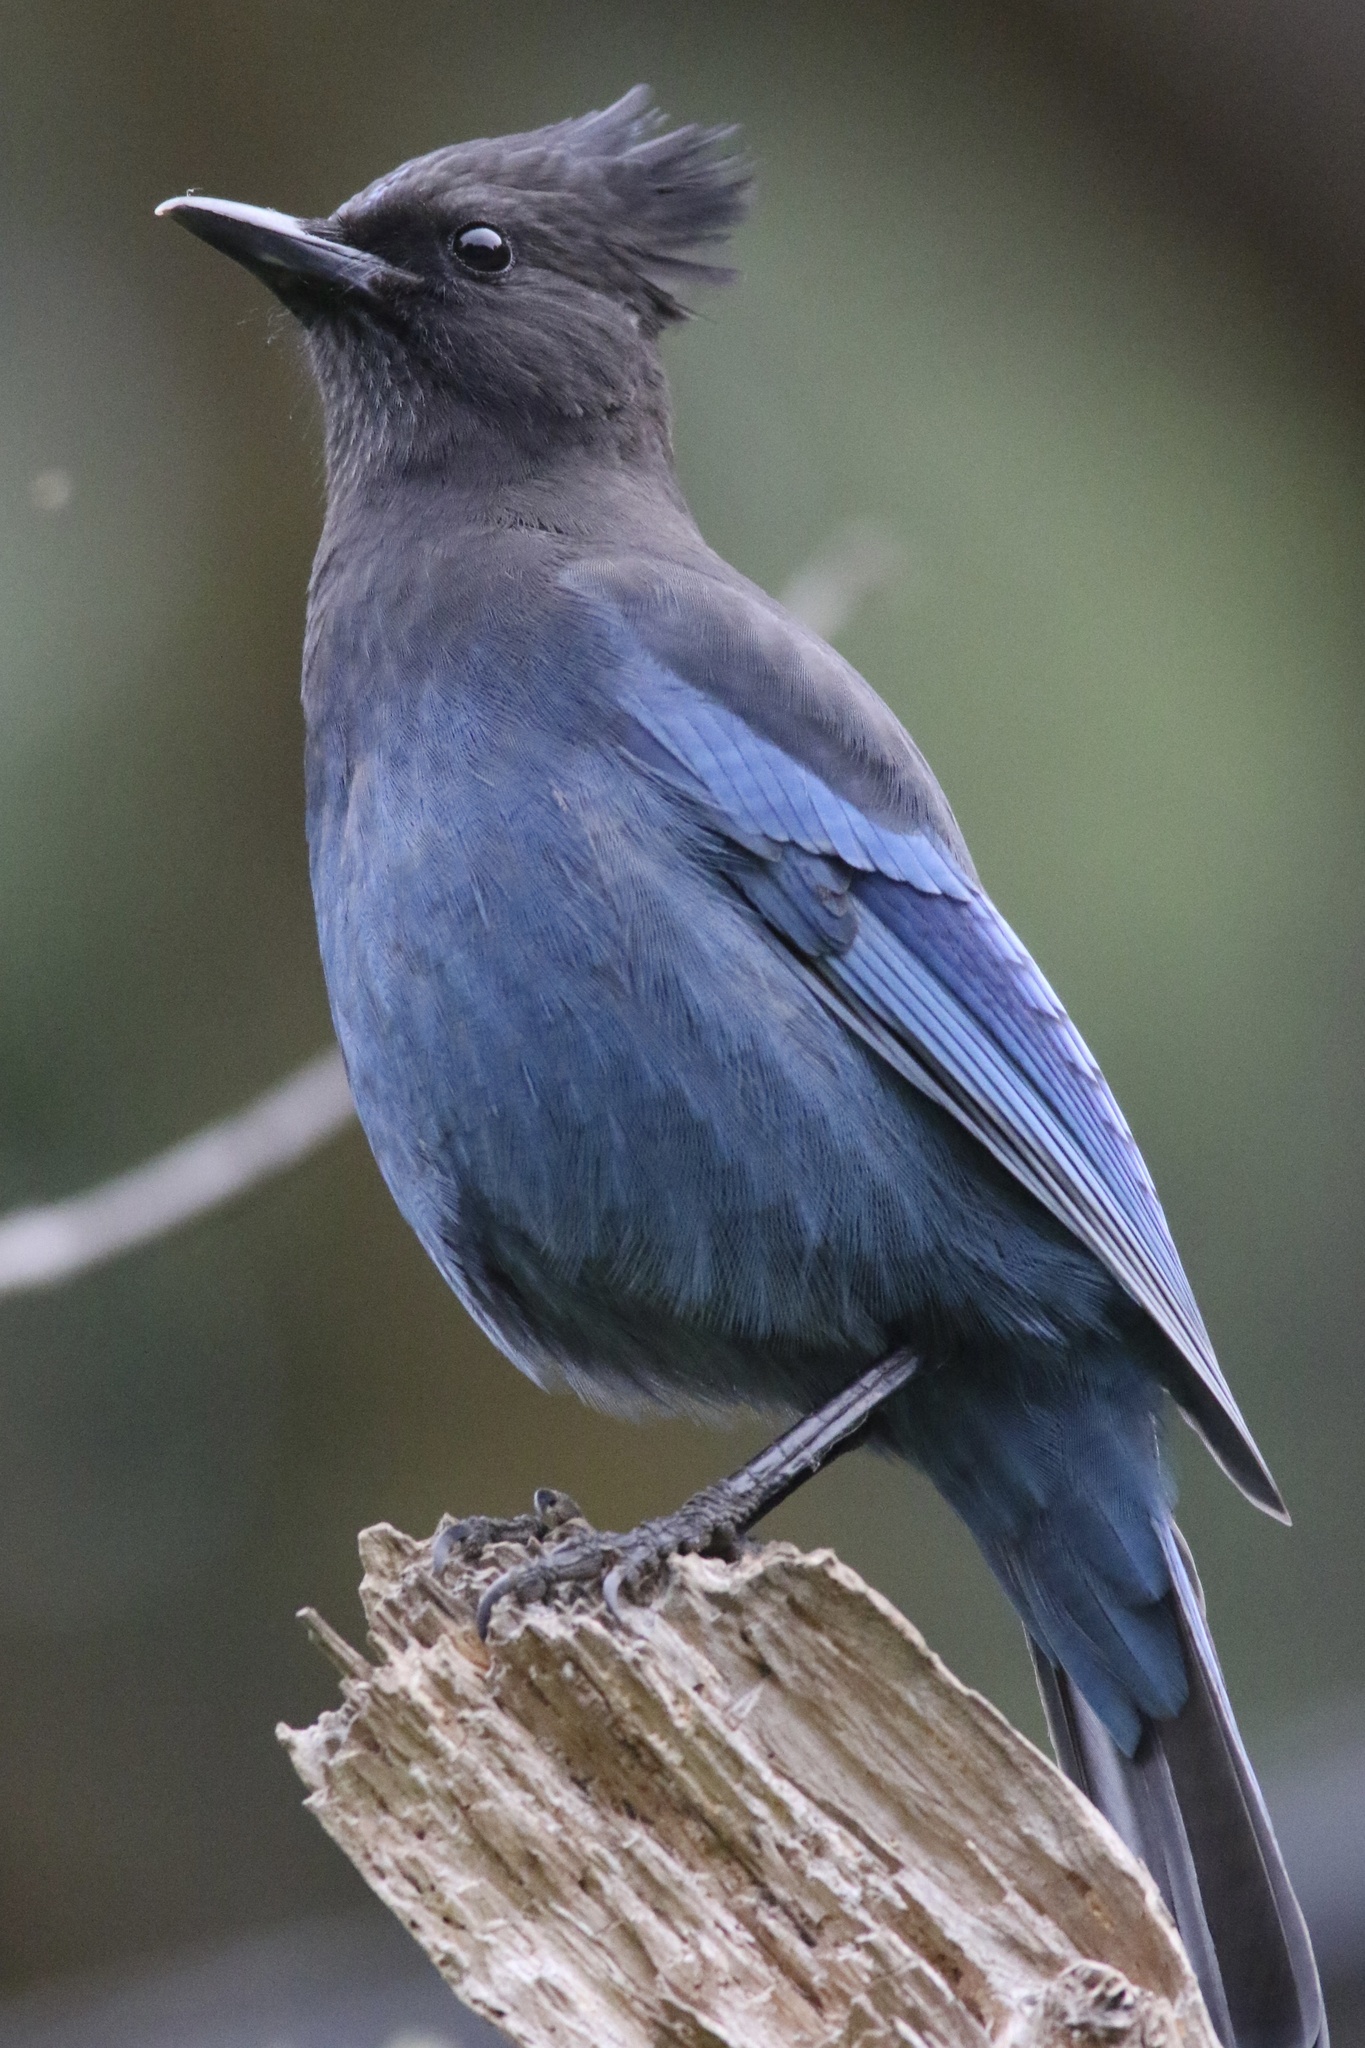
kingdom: Animalia
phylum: Chordata
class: Aves
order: Passeriformes
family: Corvidae
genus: Cyanocitta
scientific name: Cyanocitta stelleri
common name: Steller's jay
